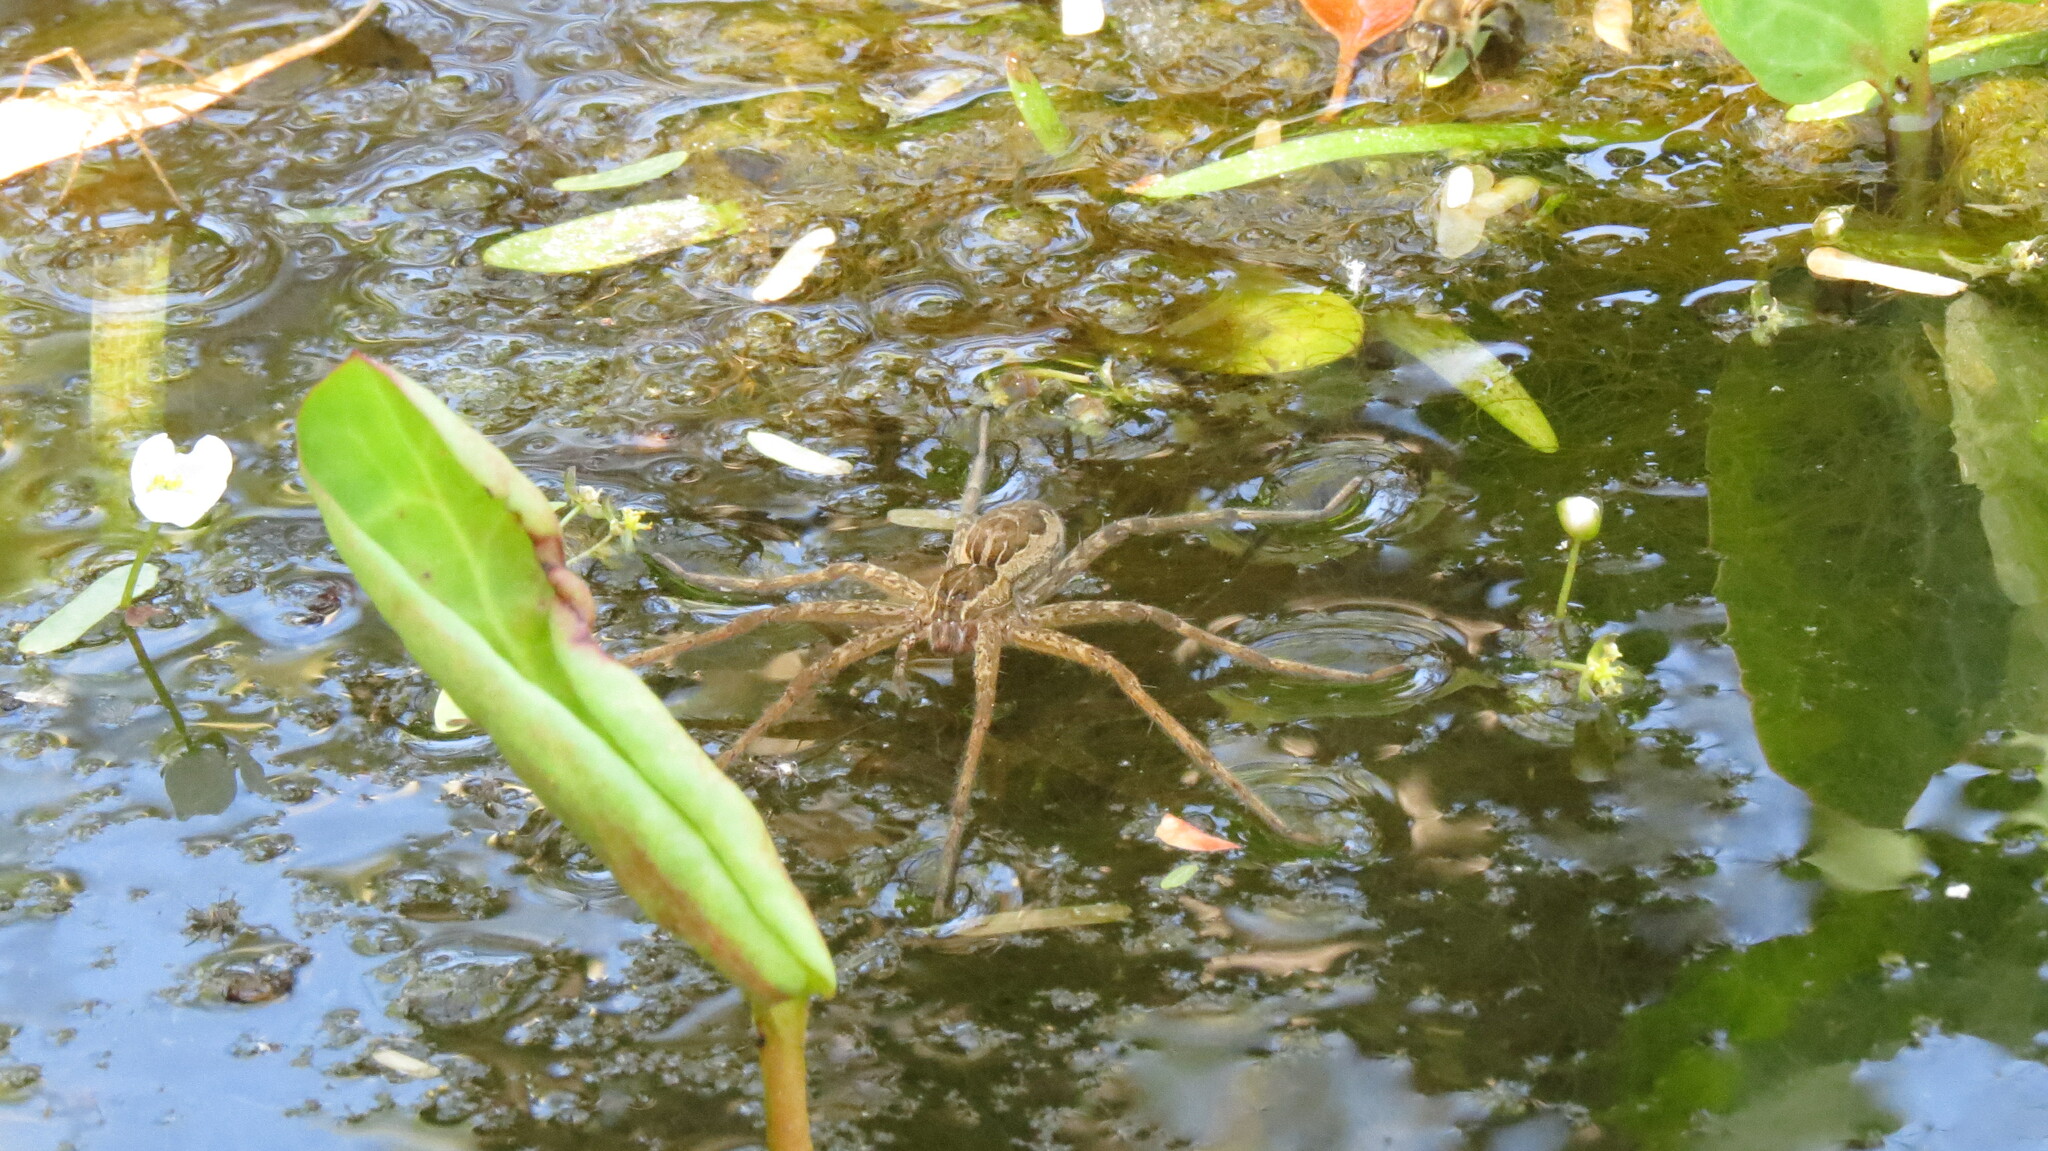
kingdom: Animalia
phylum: Arthropoda
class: Arachnida
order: Araneae
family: Pisauridae
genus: Tinus
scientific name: Tinus peregrinus
